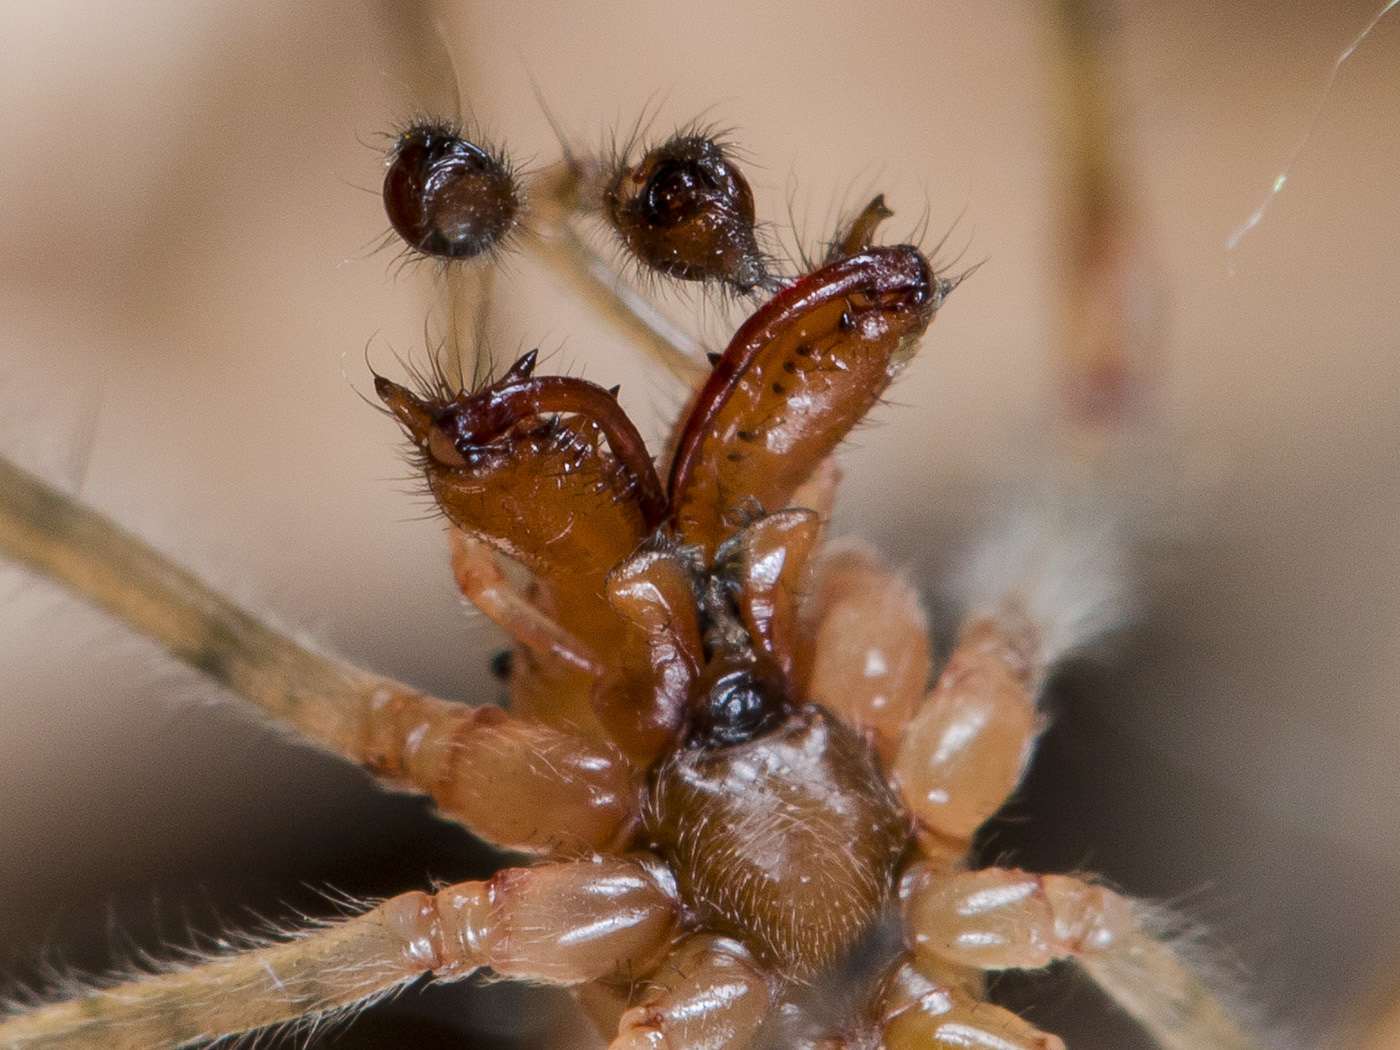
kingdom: Animalia
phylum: Arthropoda
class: Arachnida
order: Araneae
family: Tetragnathidae
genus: Tetragnatha
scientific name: Tetragnatha montana
